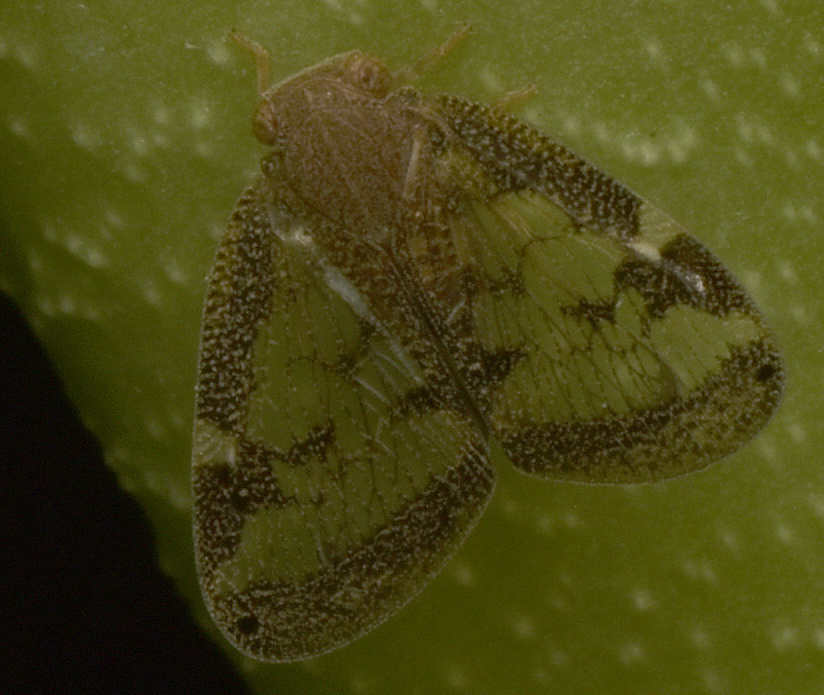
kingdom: Animalia
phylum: Arthropoda
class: Insecta
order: Hemiptera
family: Ricaniidae
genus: Scolypopa
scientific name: Scolypopa australis
